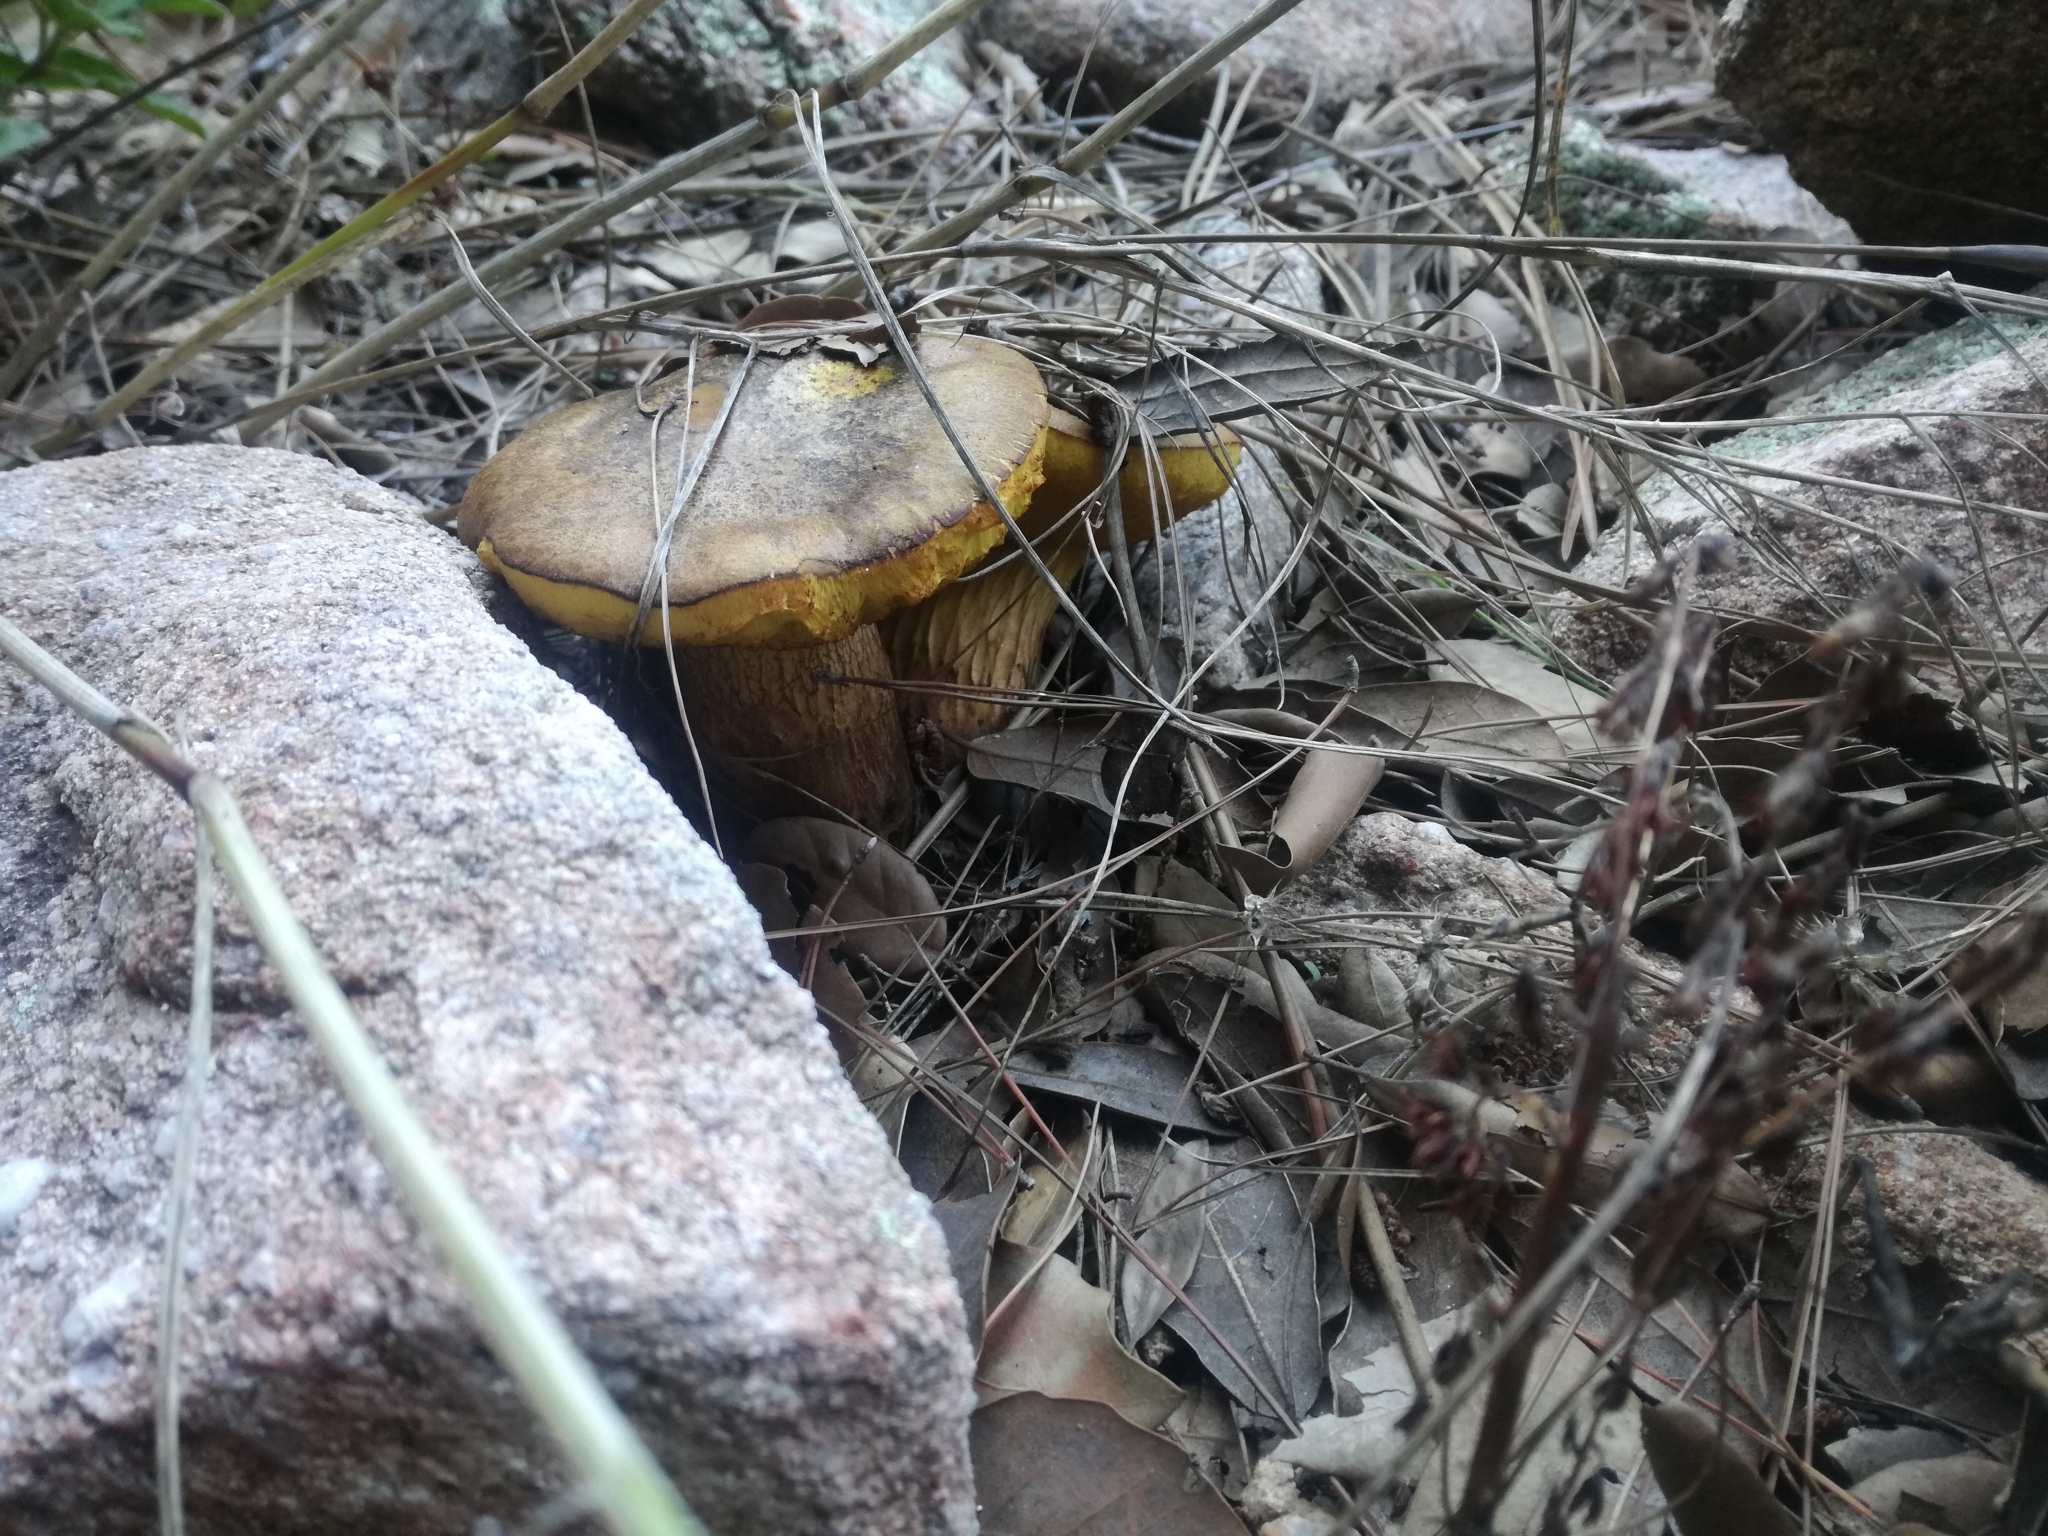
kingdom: Fungi
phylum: Basidiomycota
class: Agaricomycetes
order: Boletales
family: Boletaceae
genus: Alessioporus
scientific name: Alessioporus ichnusanus
